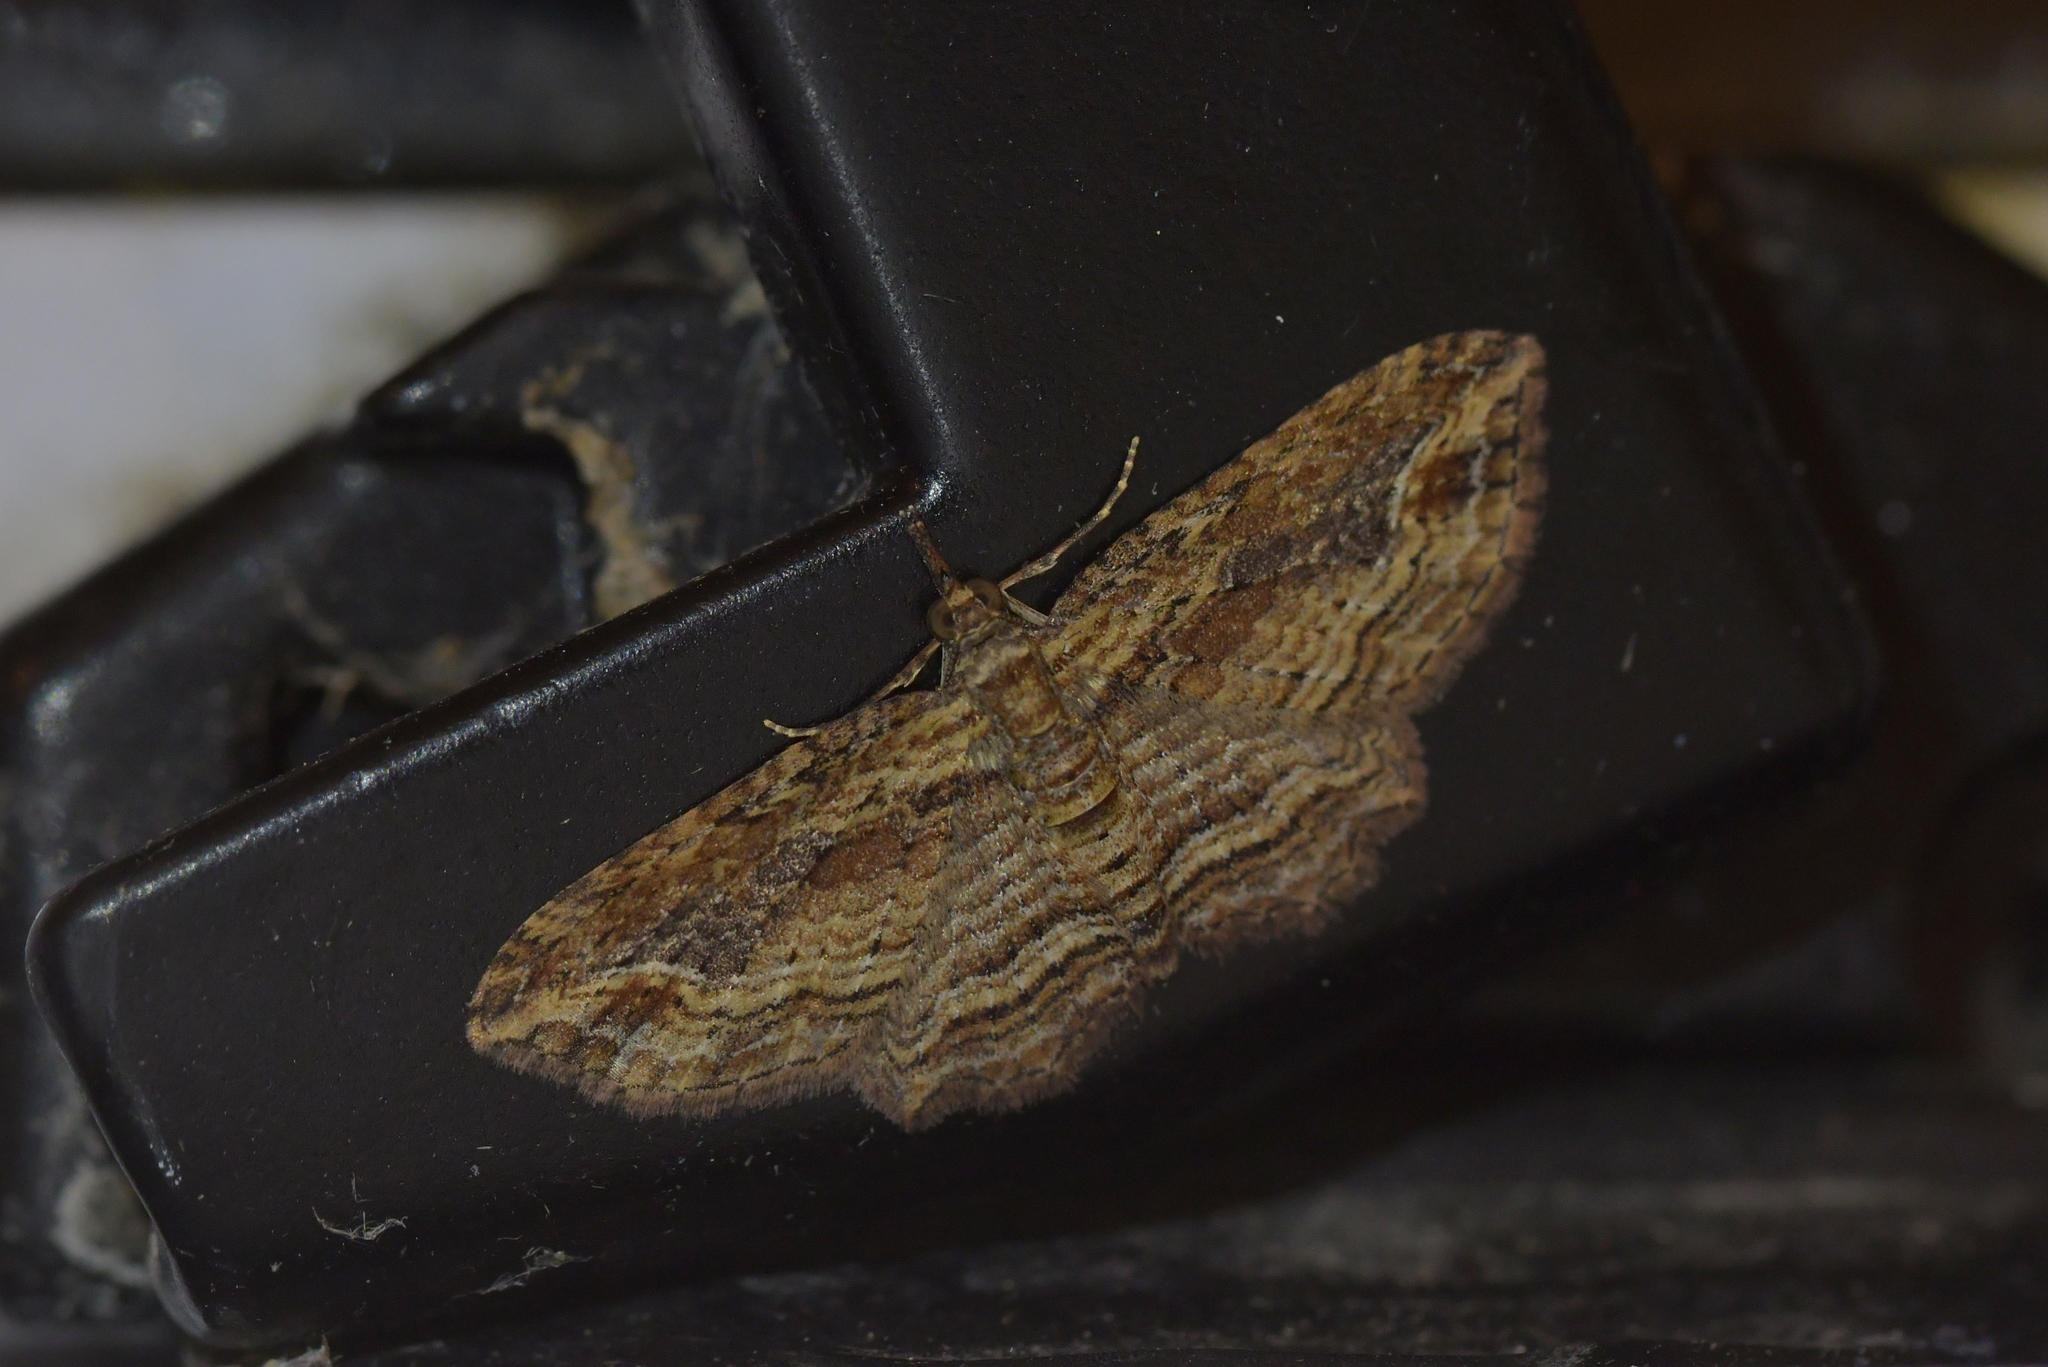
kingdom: Animalia
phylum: Arthropoda
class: Insecta
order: Lepidoptera
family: Geometridae
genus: Chloroclystis
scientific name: Chloroclystis filata
